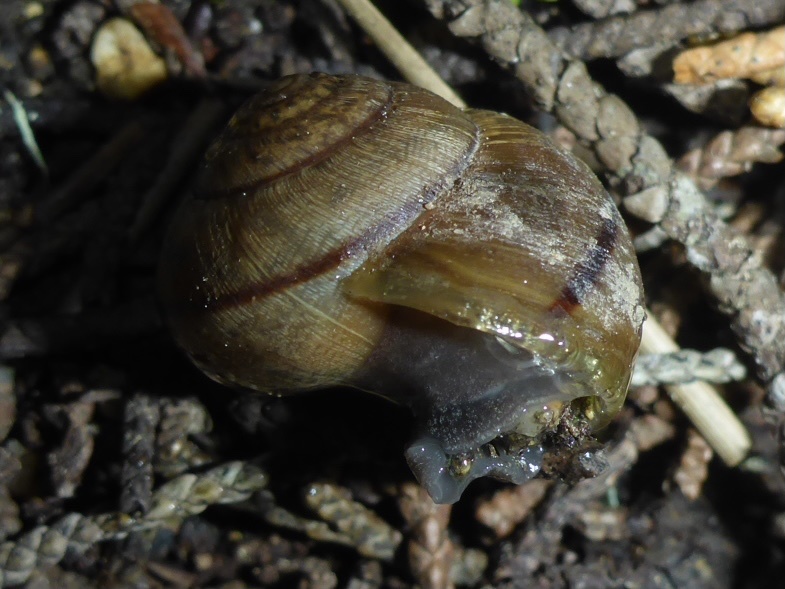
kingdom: Animalia
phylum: Mollusca
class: Gastropoda
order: Stylommatophora
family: Xanthonychidae
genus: Helminthoglypta
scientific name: Helminthoglypta nickliniana
